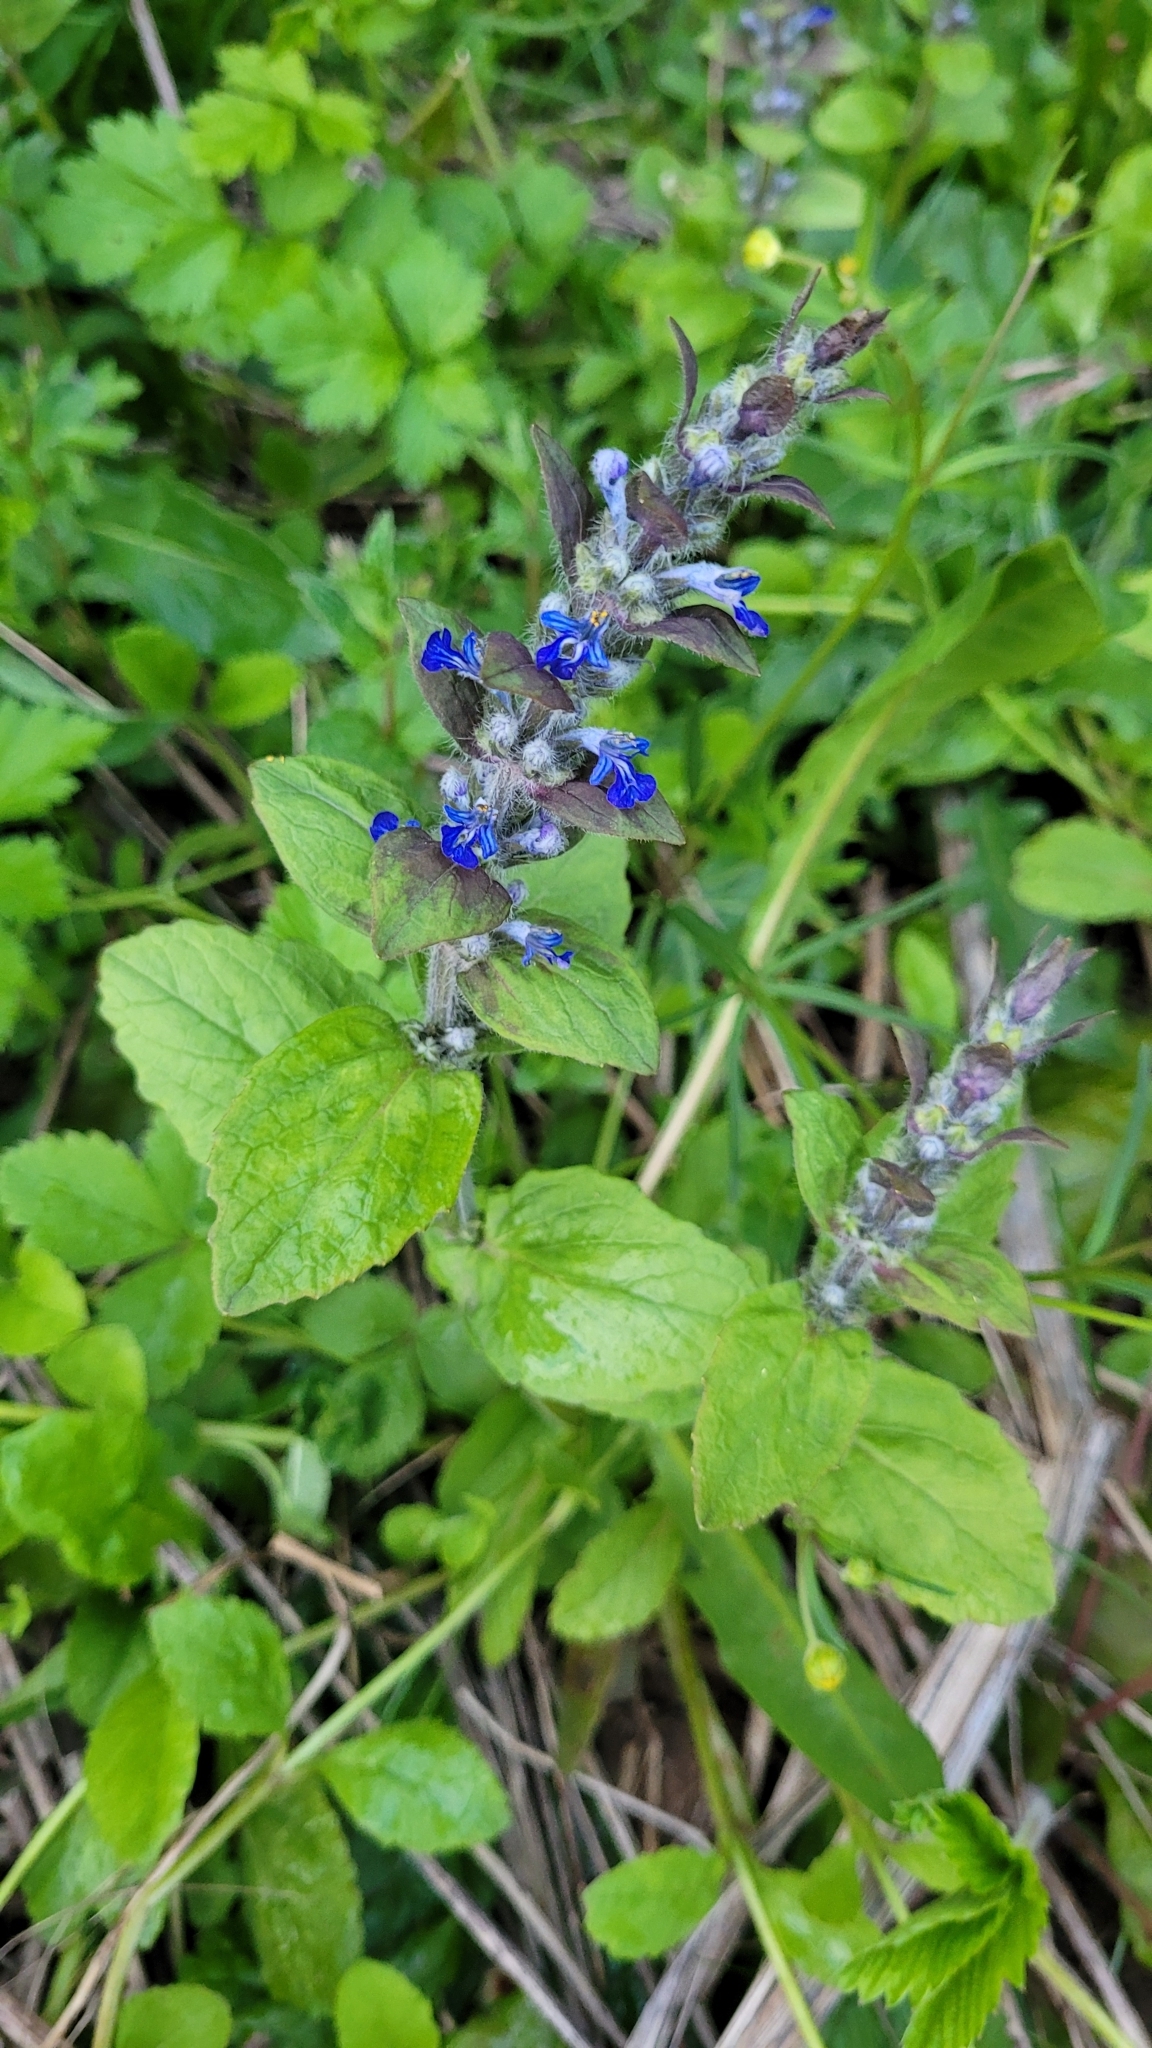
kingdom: Plantae
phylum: Tracheophyta
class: Magnoliopsida
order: Lamiales
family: Lamiaceae
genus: Ajuga
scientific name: Ajuga reptans
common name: Bugle
